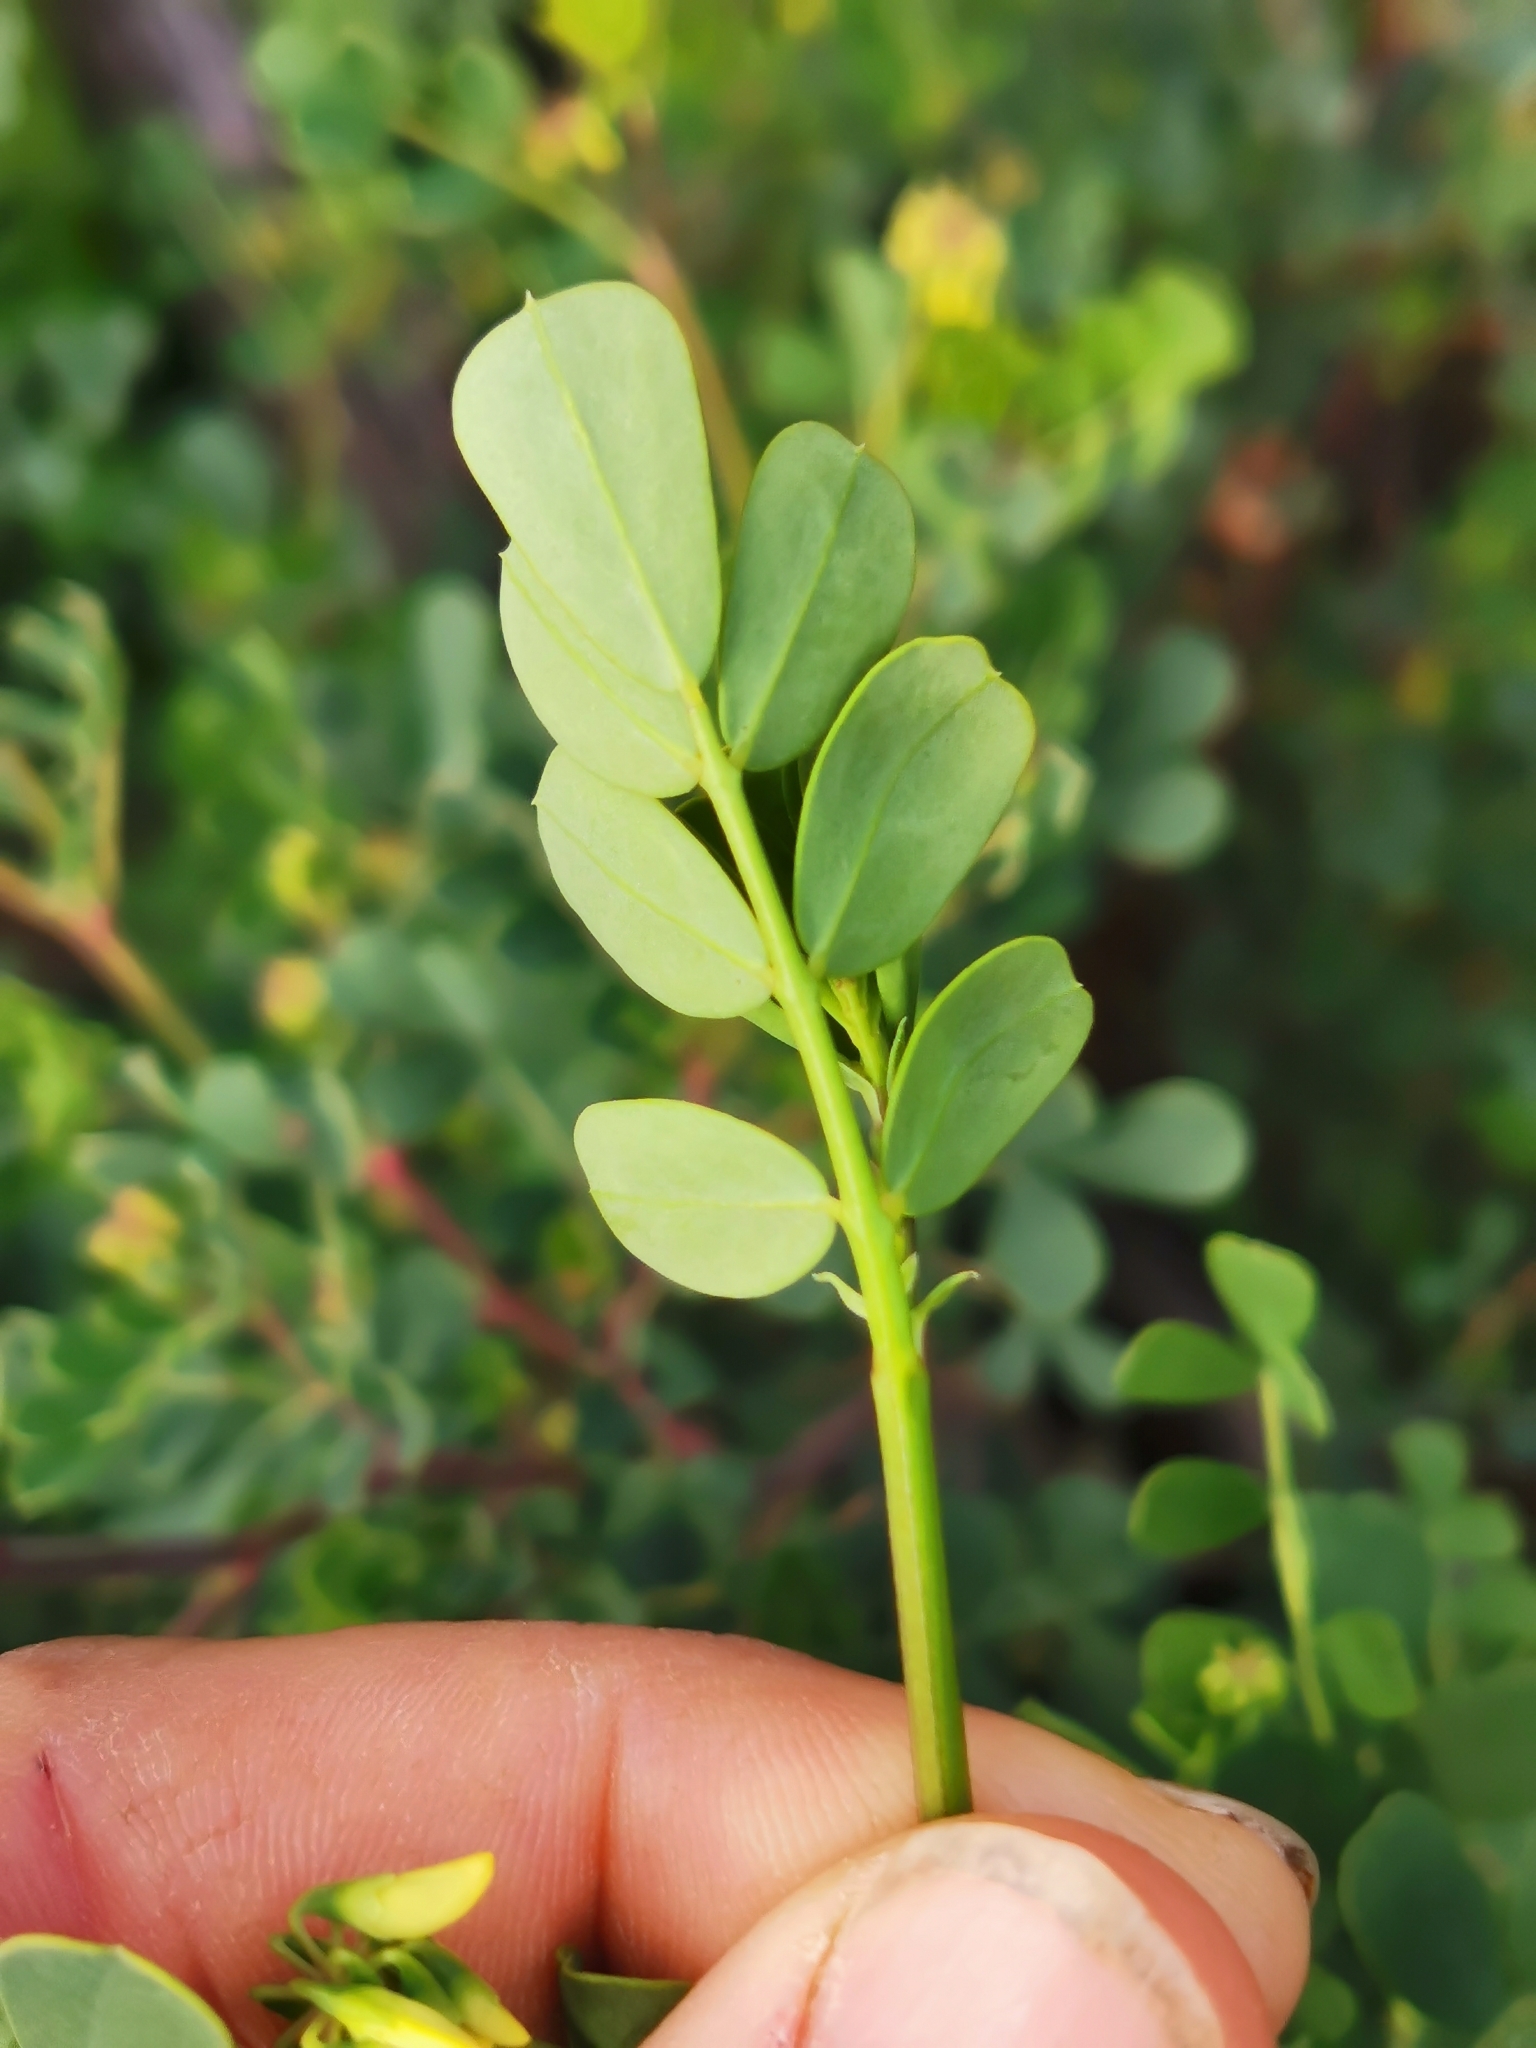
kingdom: Plantae
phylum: Tracheophyta
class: Magnoliopsida
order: Fabales
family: Fabaceae
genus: Coronilla
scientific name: Coronilla valentina
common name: Shrubby scorpion-vetch
